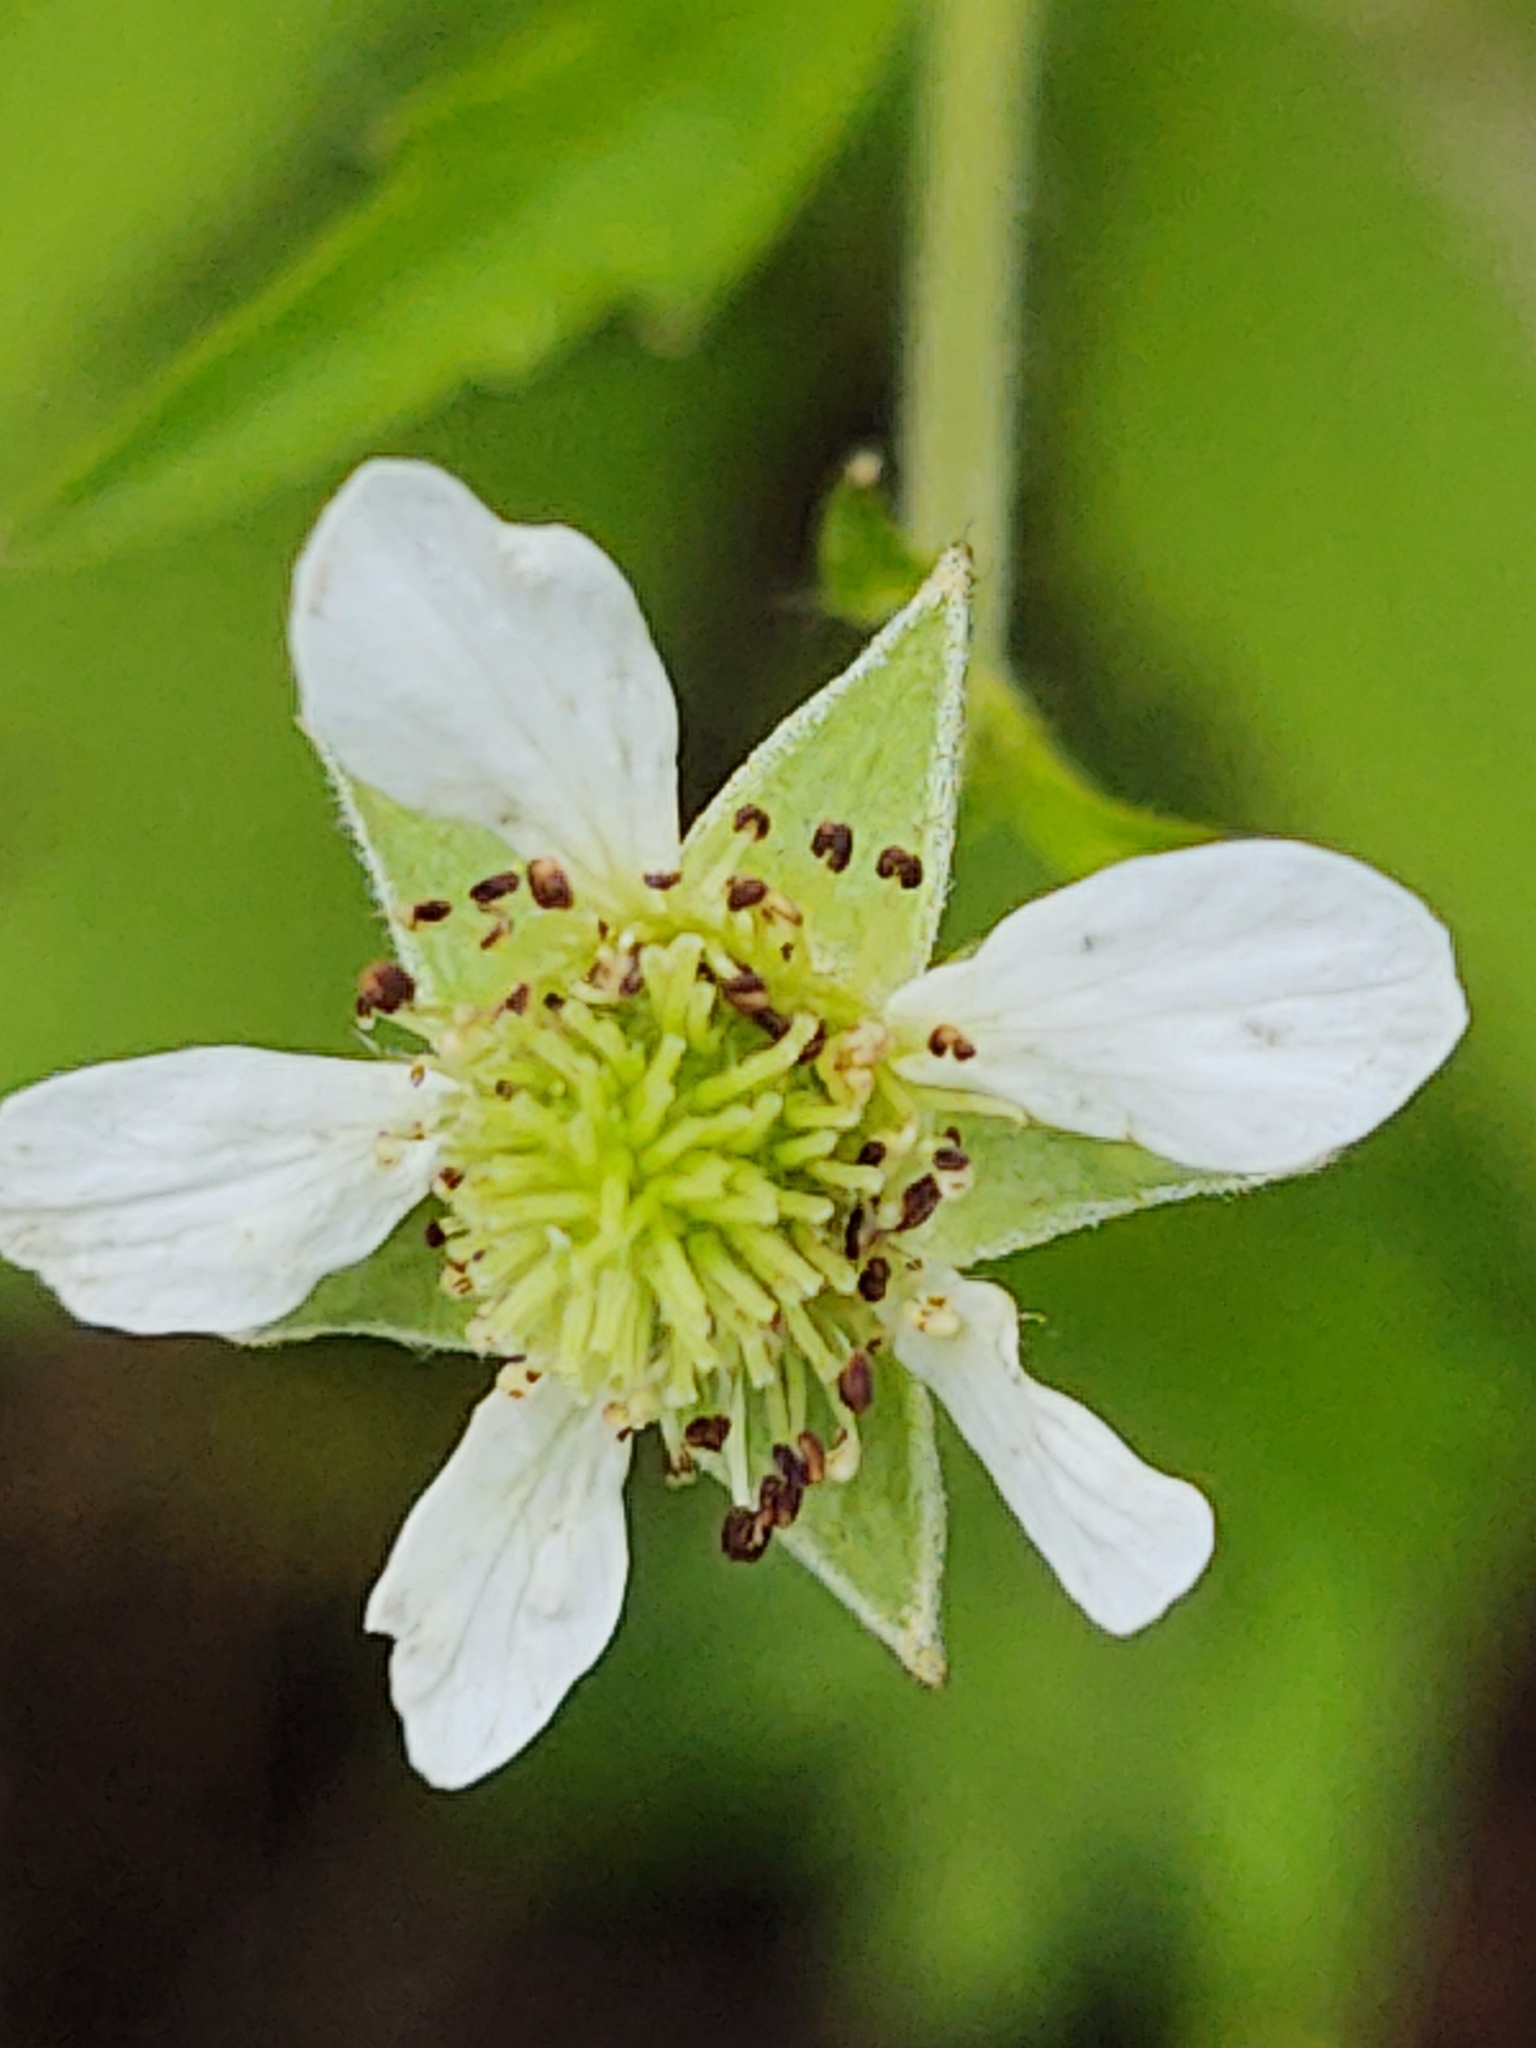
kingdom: Plantae
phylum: Tracheophyta
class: Magnoliopsida
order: Rosales
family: Rosaceae
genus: Geum
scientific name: Geum canadense
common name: White avens
